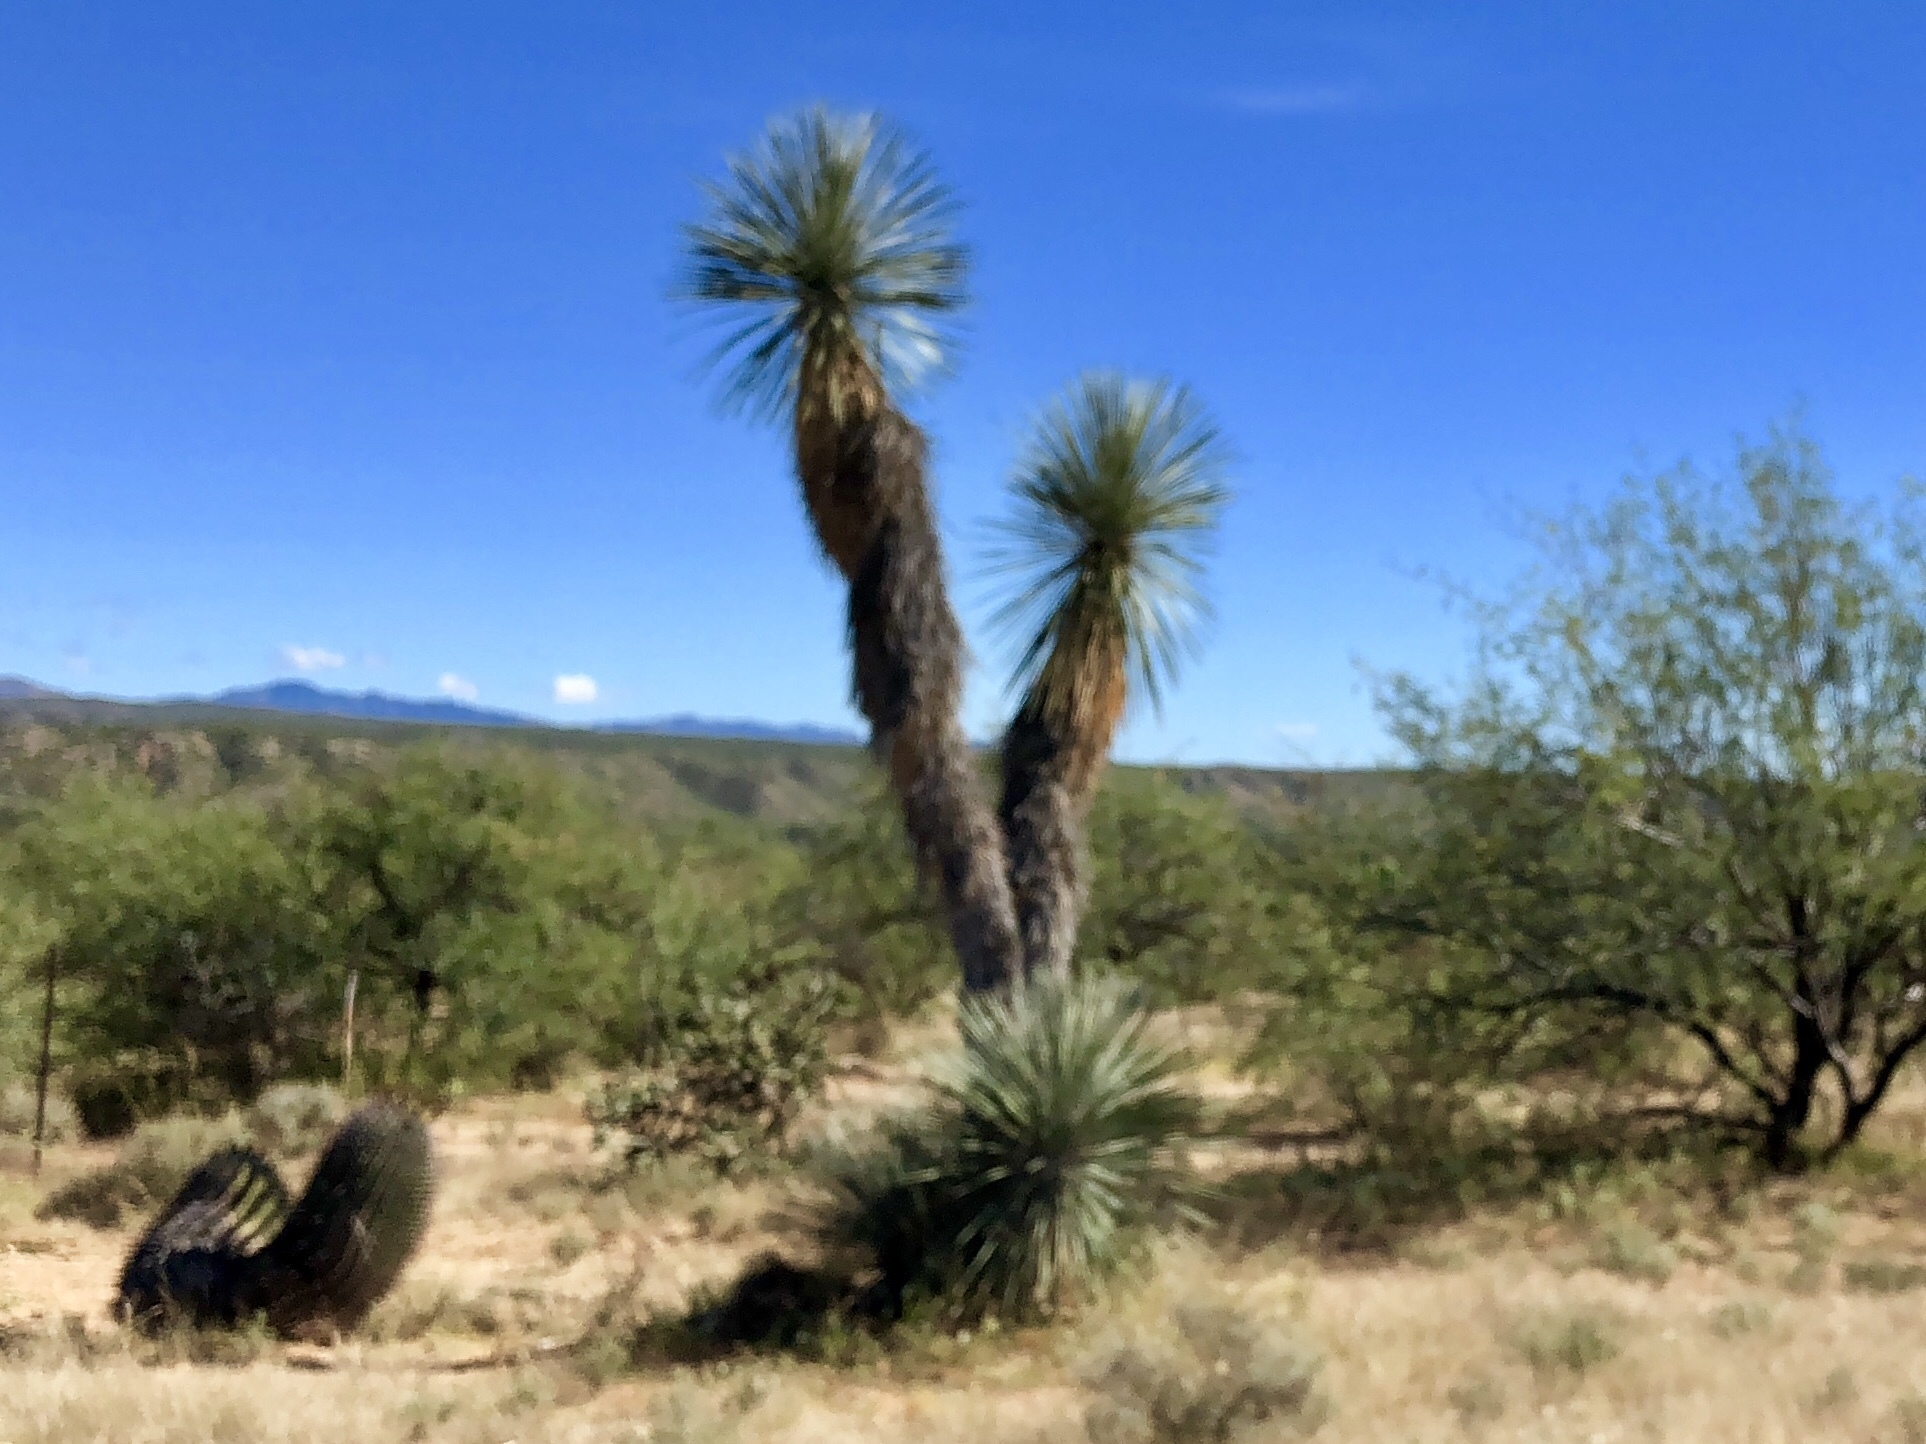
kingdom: Plantae
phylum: Tracheophyta
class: Liliopsida
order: Asparagales
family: Asparagaceae
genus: Yucca
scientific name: Yucca elata
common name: Palmella
